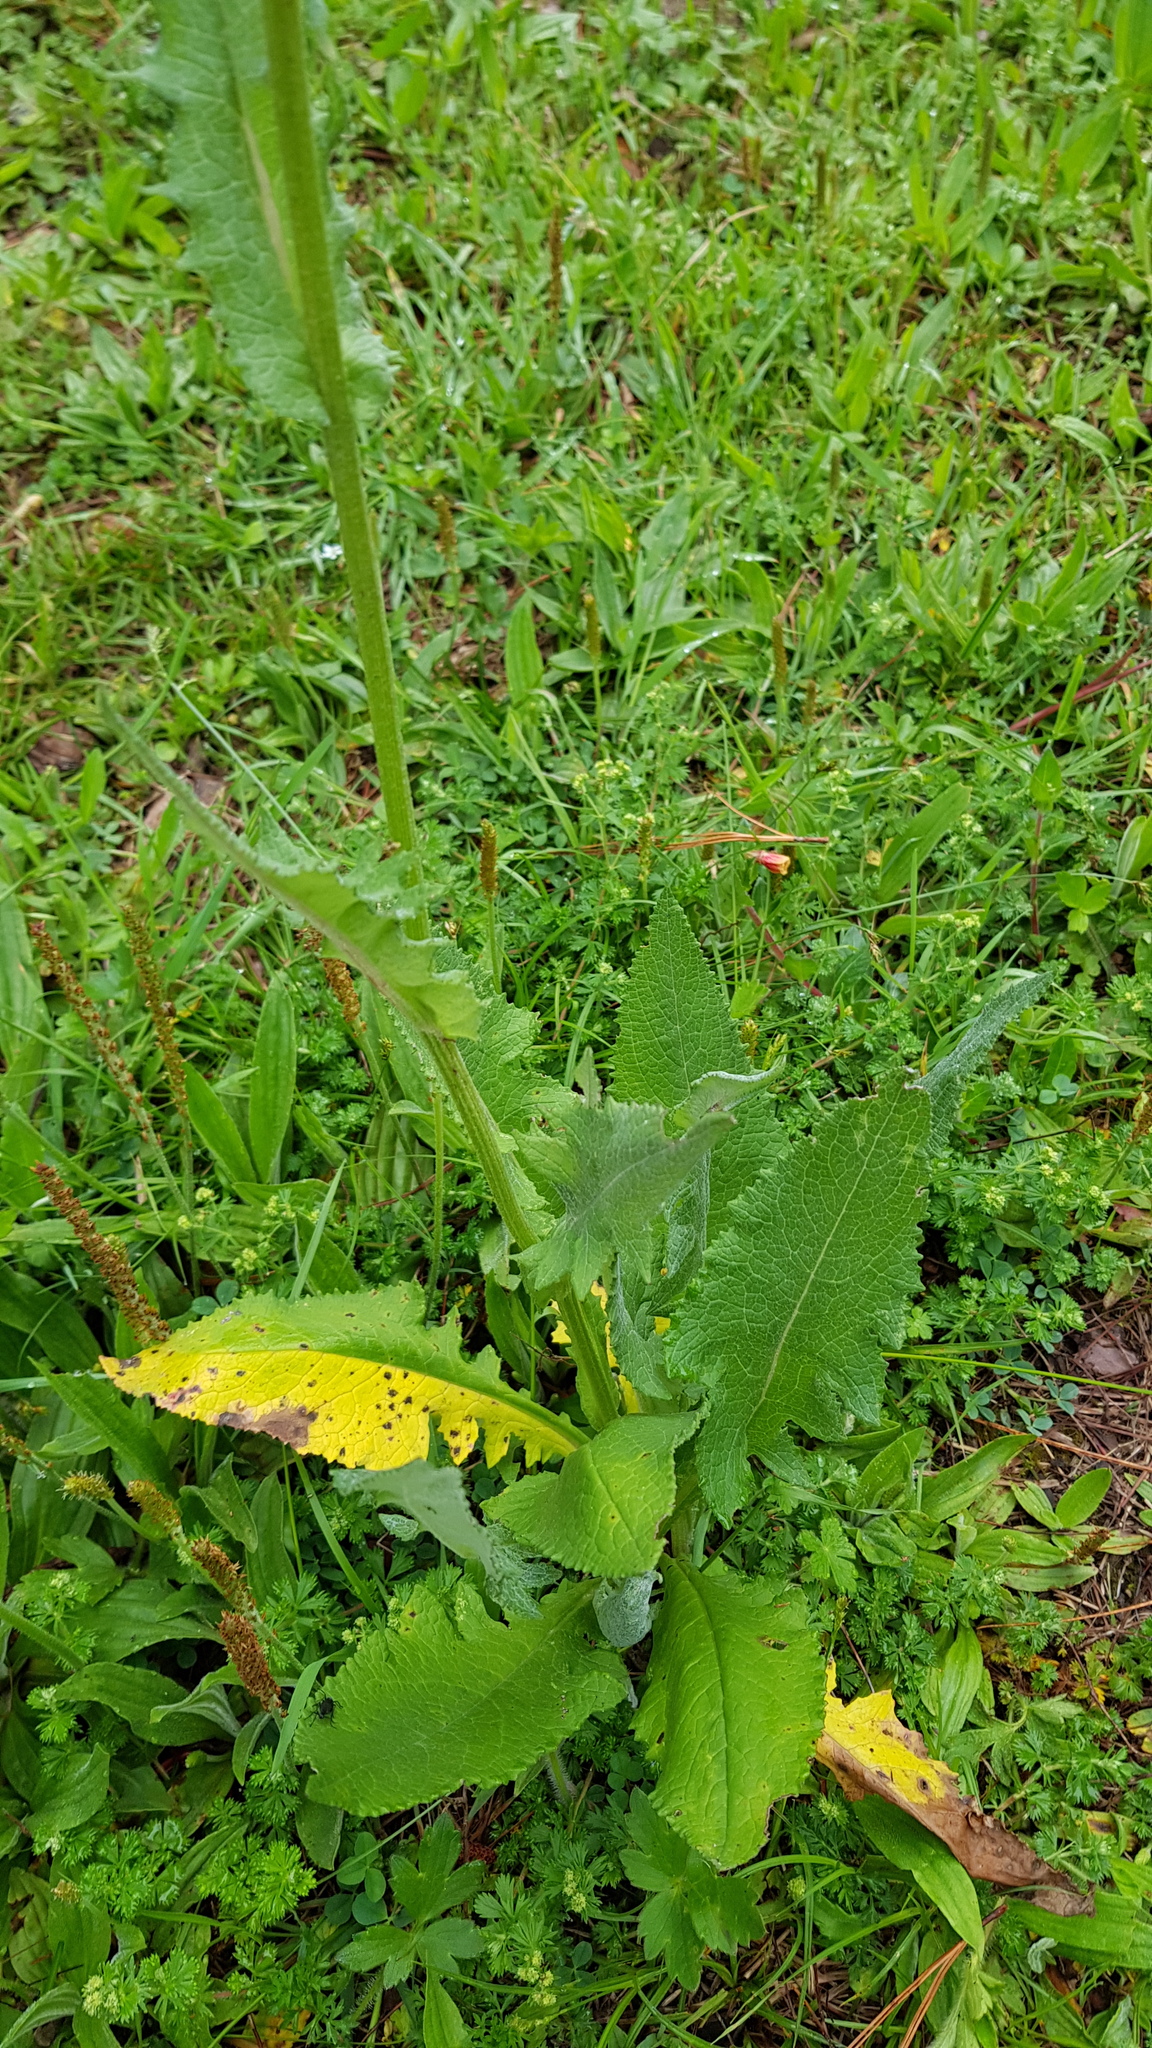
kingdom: Plantae
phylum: Tracheophyta
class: Magnoliopsida
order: Asterales
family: Asteraceae
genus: Senecio
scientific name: Senecio sennikovii
